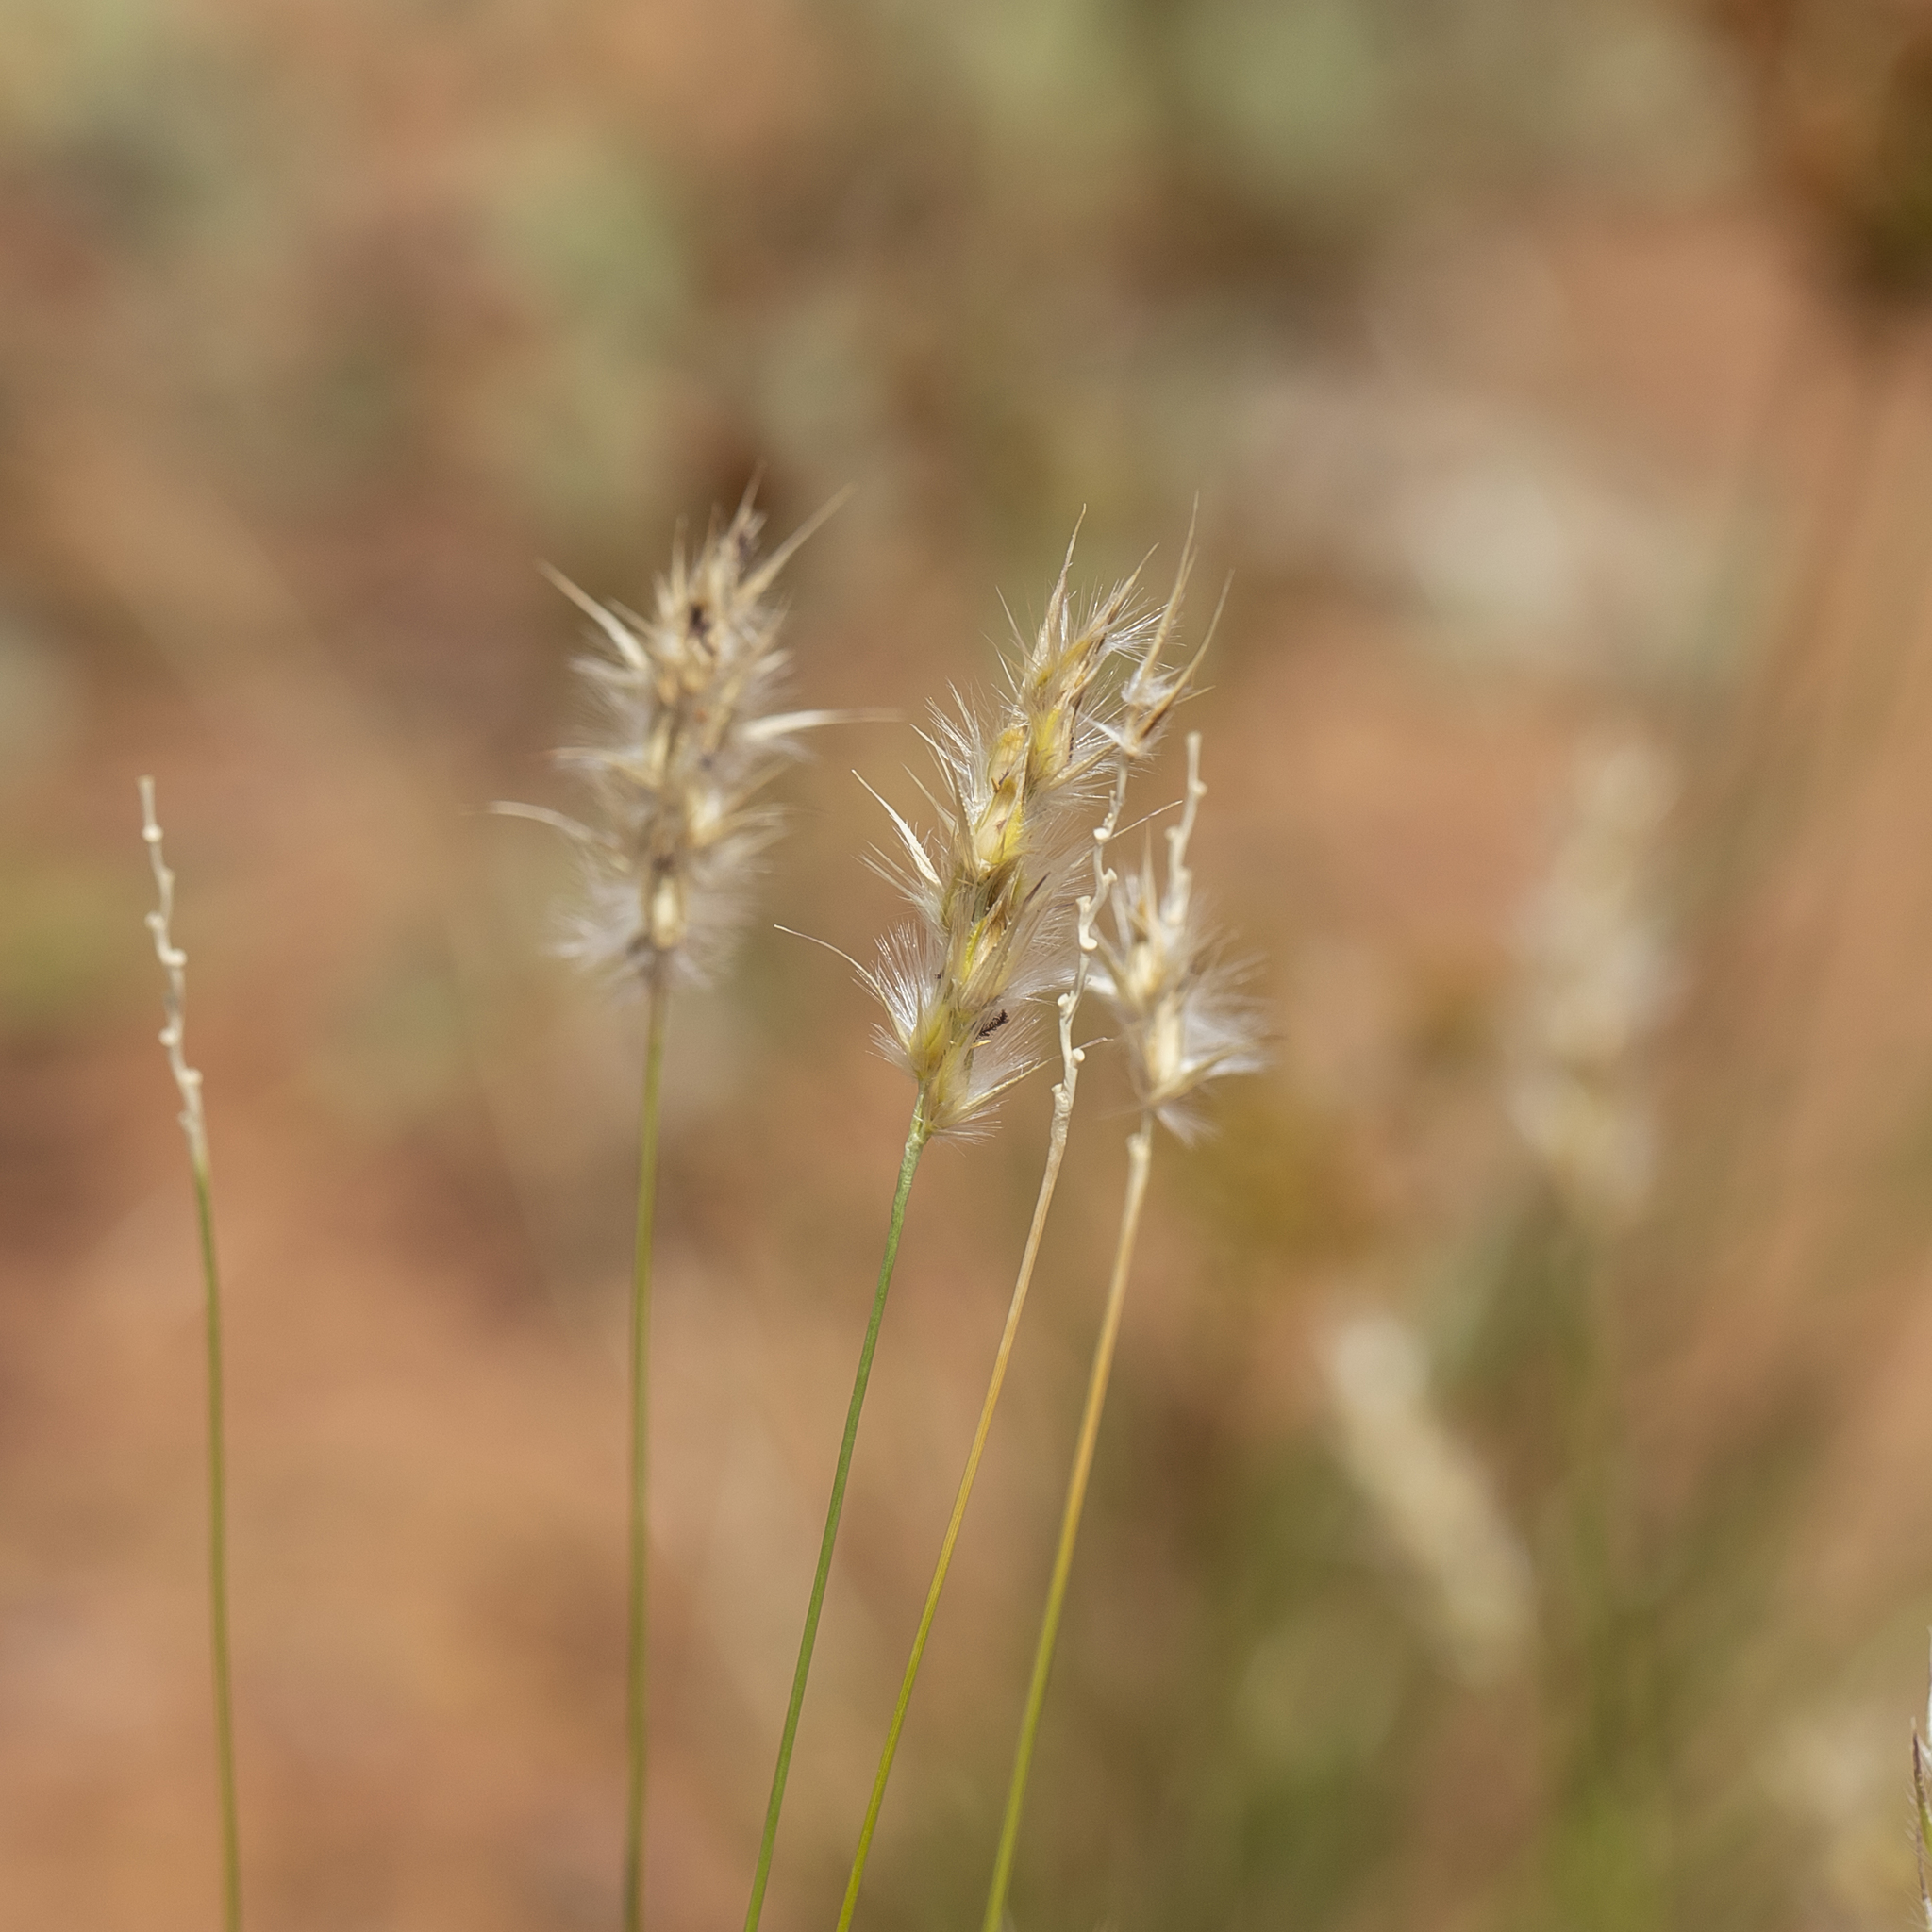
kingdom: Plantae
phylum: Tracheophyta
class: Liliopsida
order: Poales
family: Poaceae
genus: Neurachne
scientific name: Neurachne muelleri
